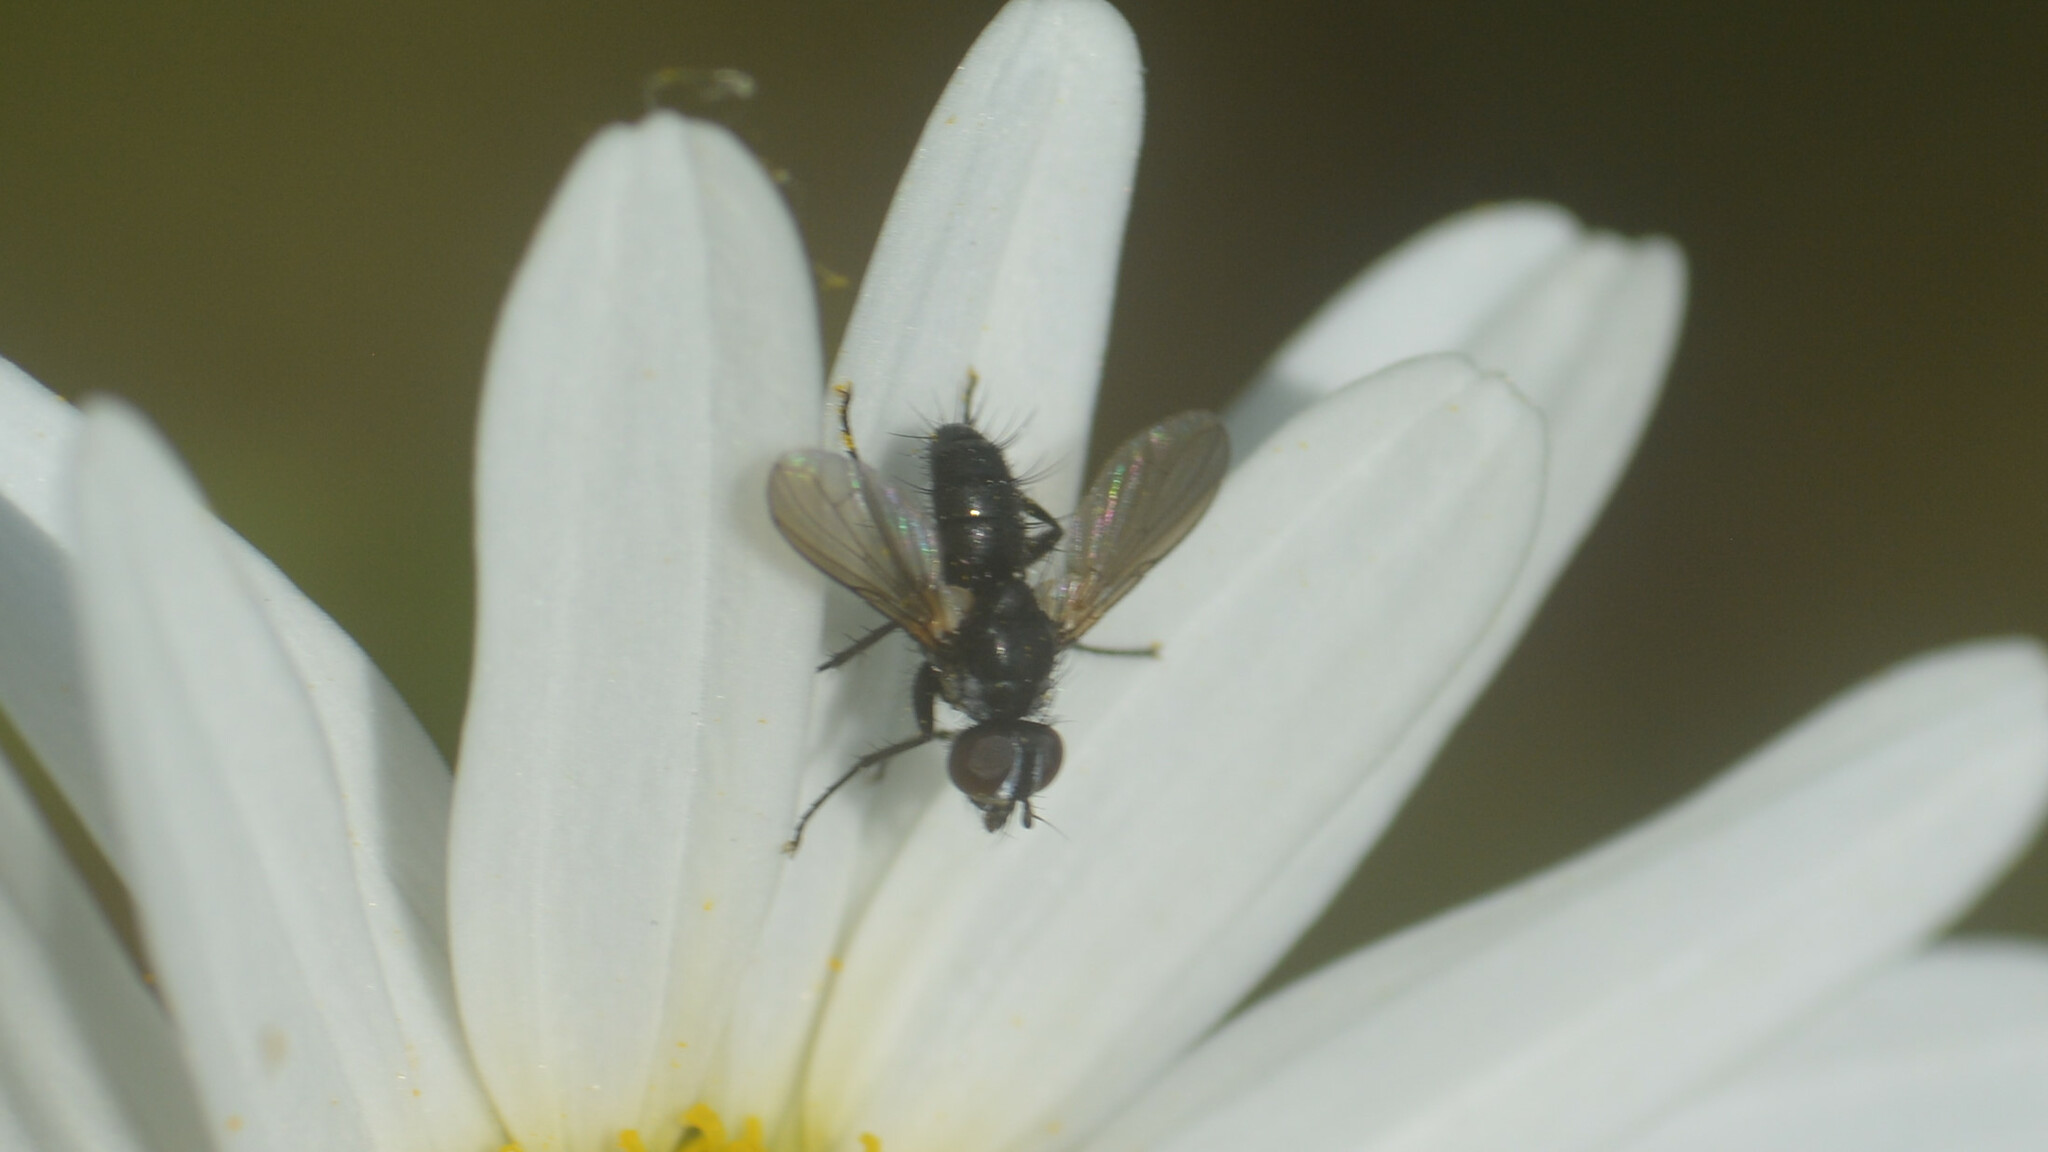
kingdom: Animalia
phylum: Arthropoda
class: Insecta
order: Diptera
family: Tachinidae
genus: Phania
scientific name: Phania funesta
